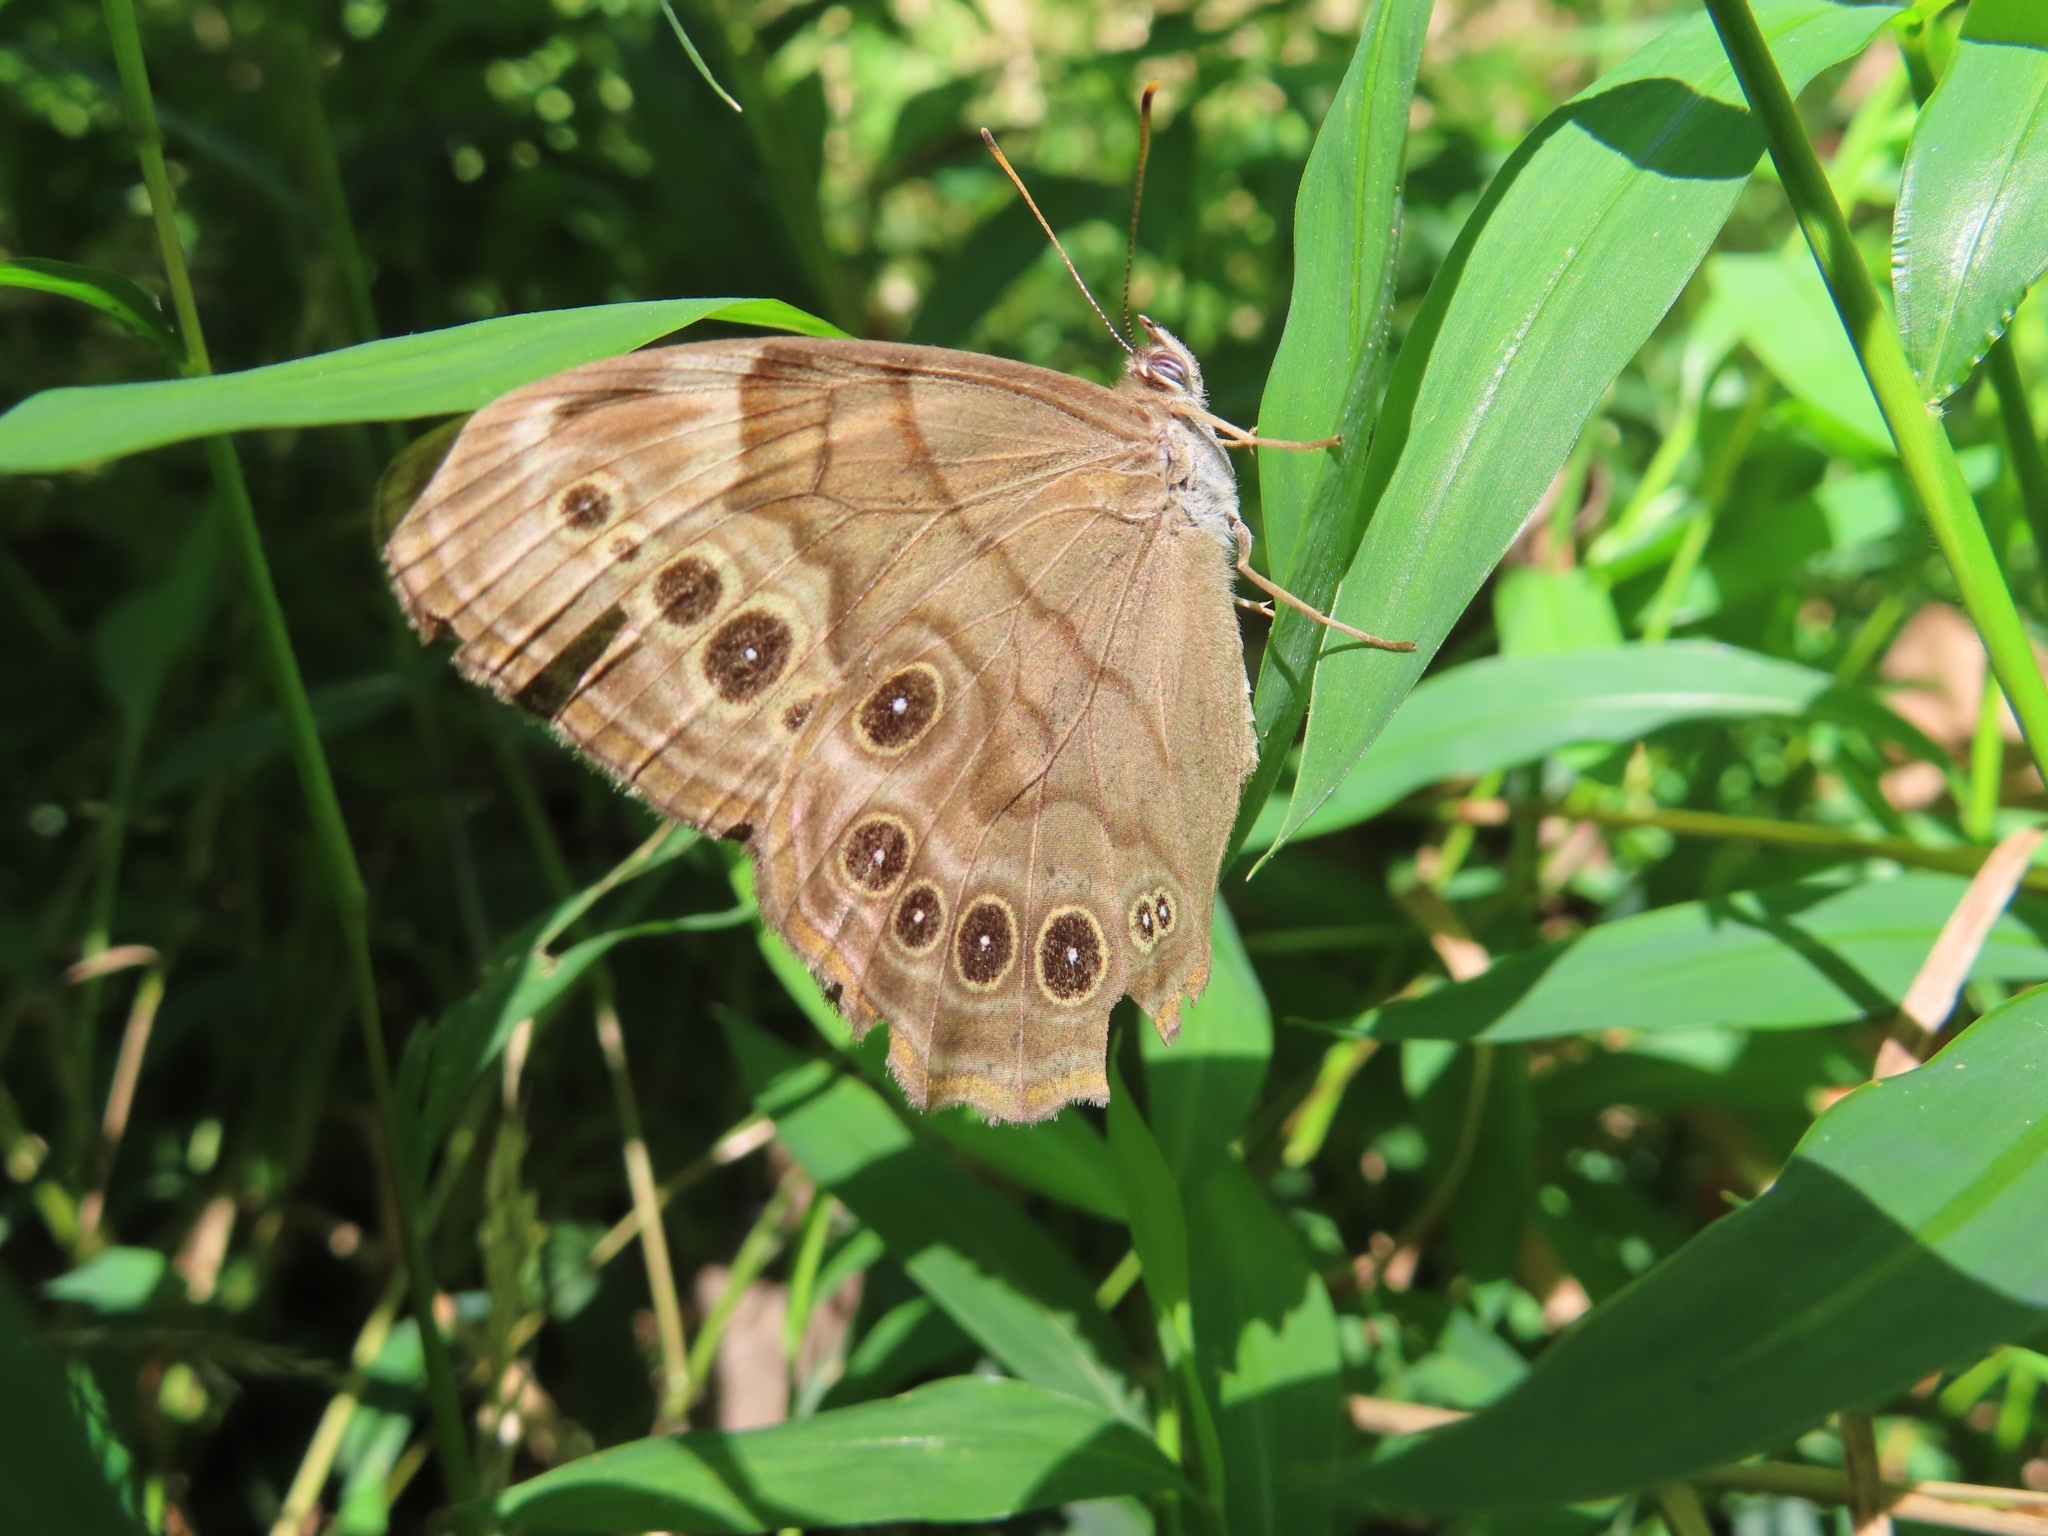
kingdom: Animalia
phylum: Arthropoda
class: Insecta
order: Lepidoptera
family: Nymphalidae
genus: Lethe
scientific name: Lethe anthedon
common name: Northern pearly-eye
